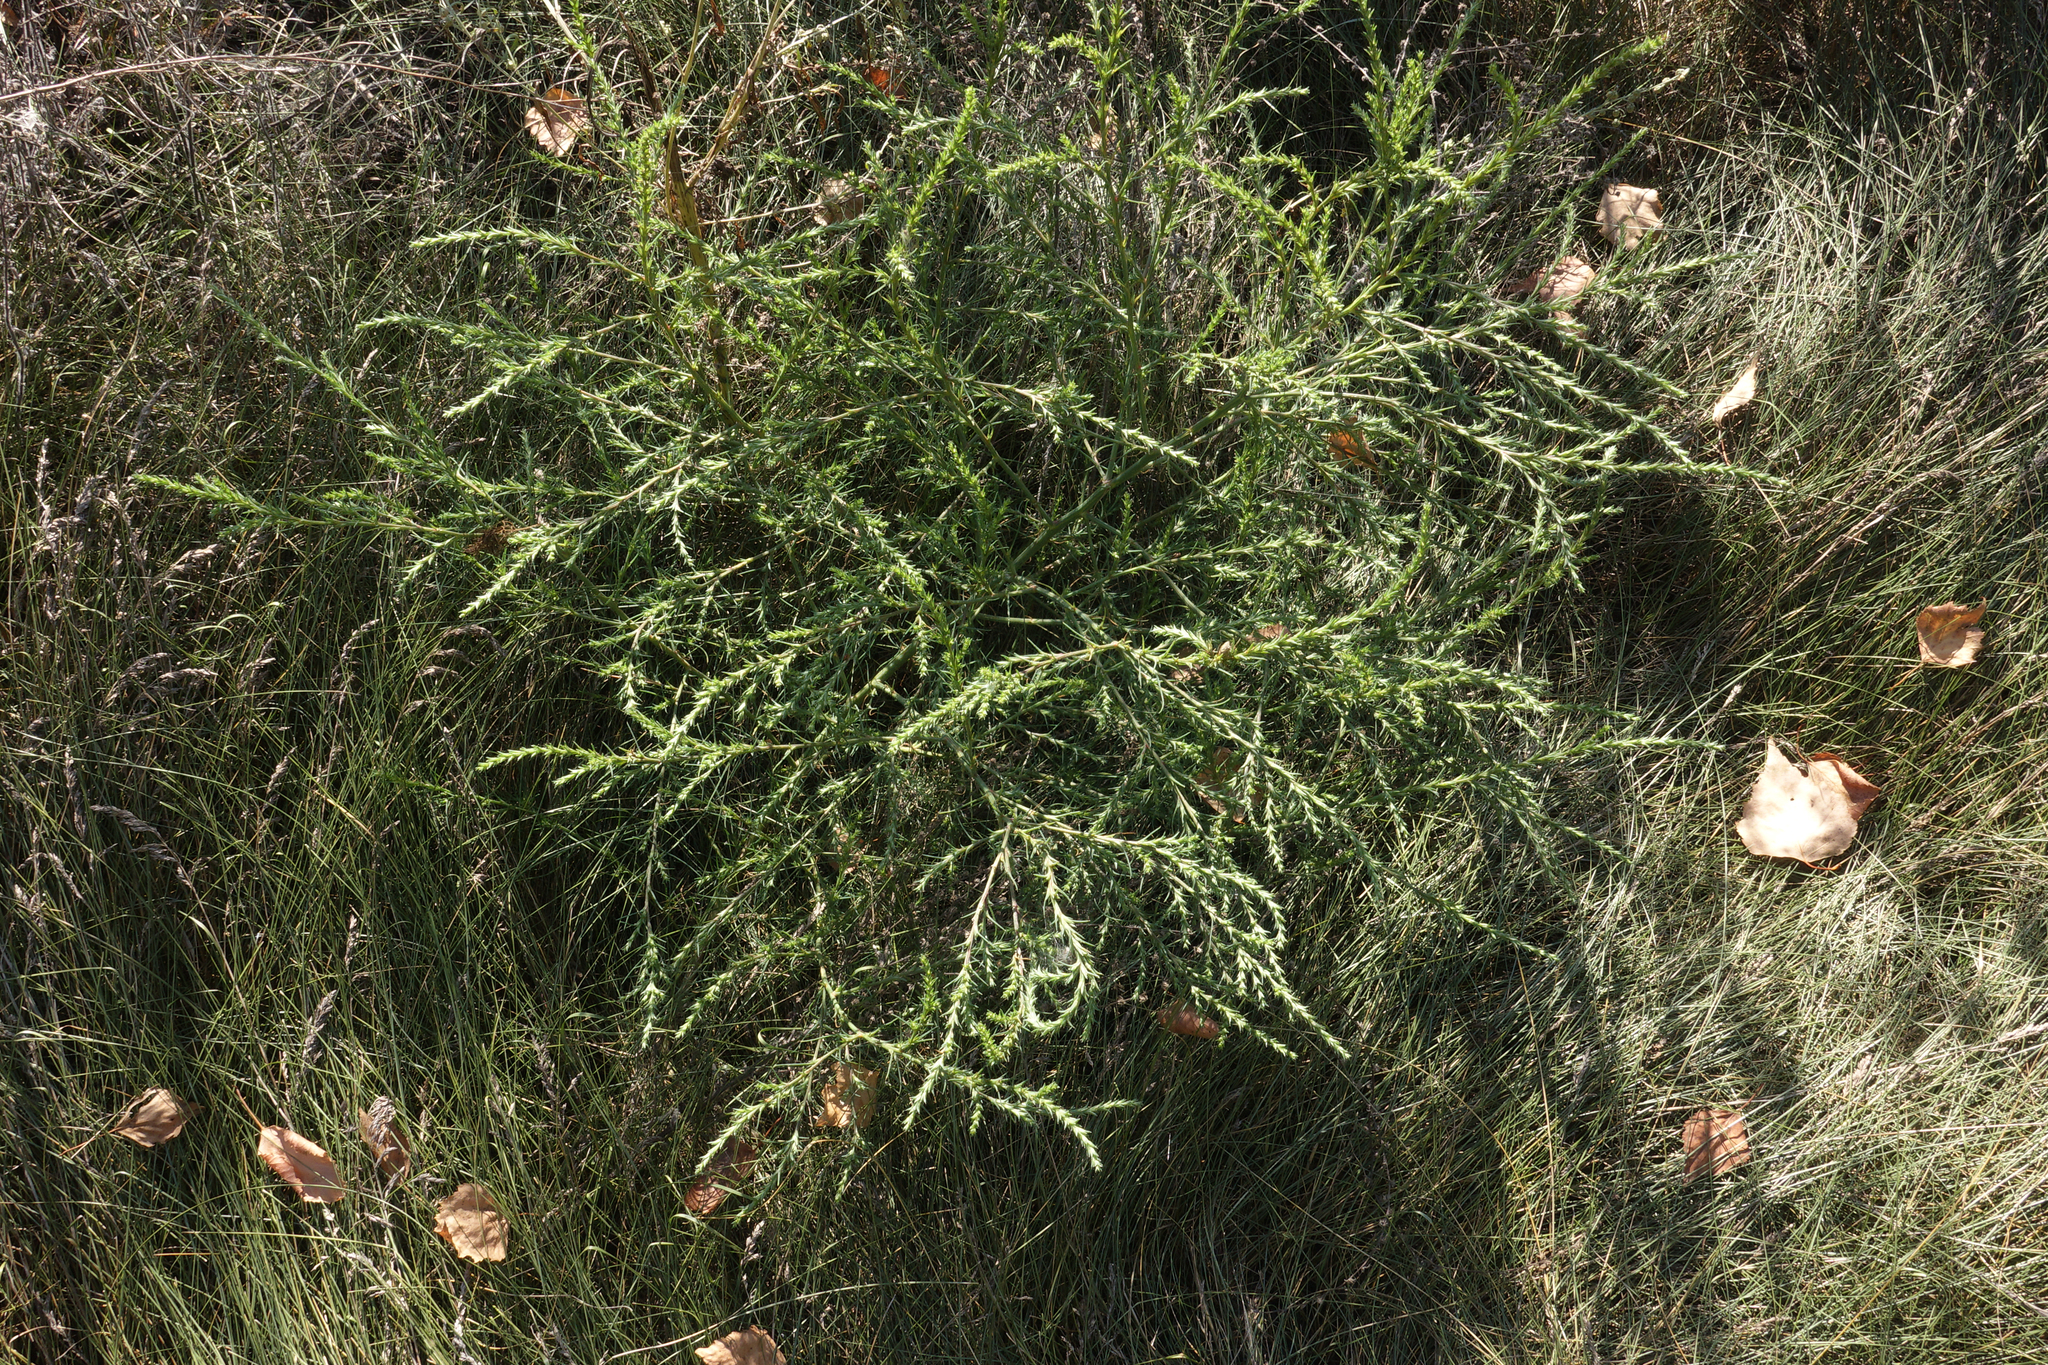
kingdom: Plantae
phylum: Tracheophyta
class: Magnoliopsida
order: Caryophyllales
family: Amaranthaceae
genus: Salsola
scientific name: Salsola collina
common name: Tumbleweed
